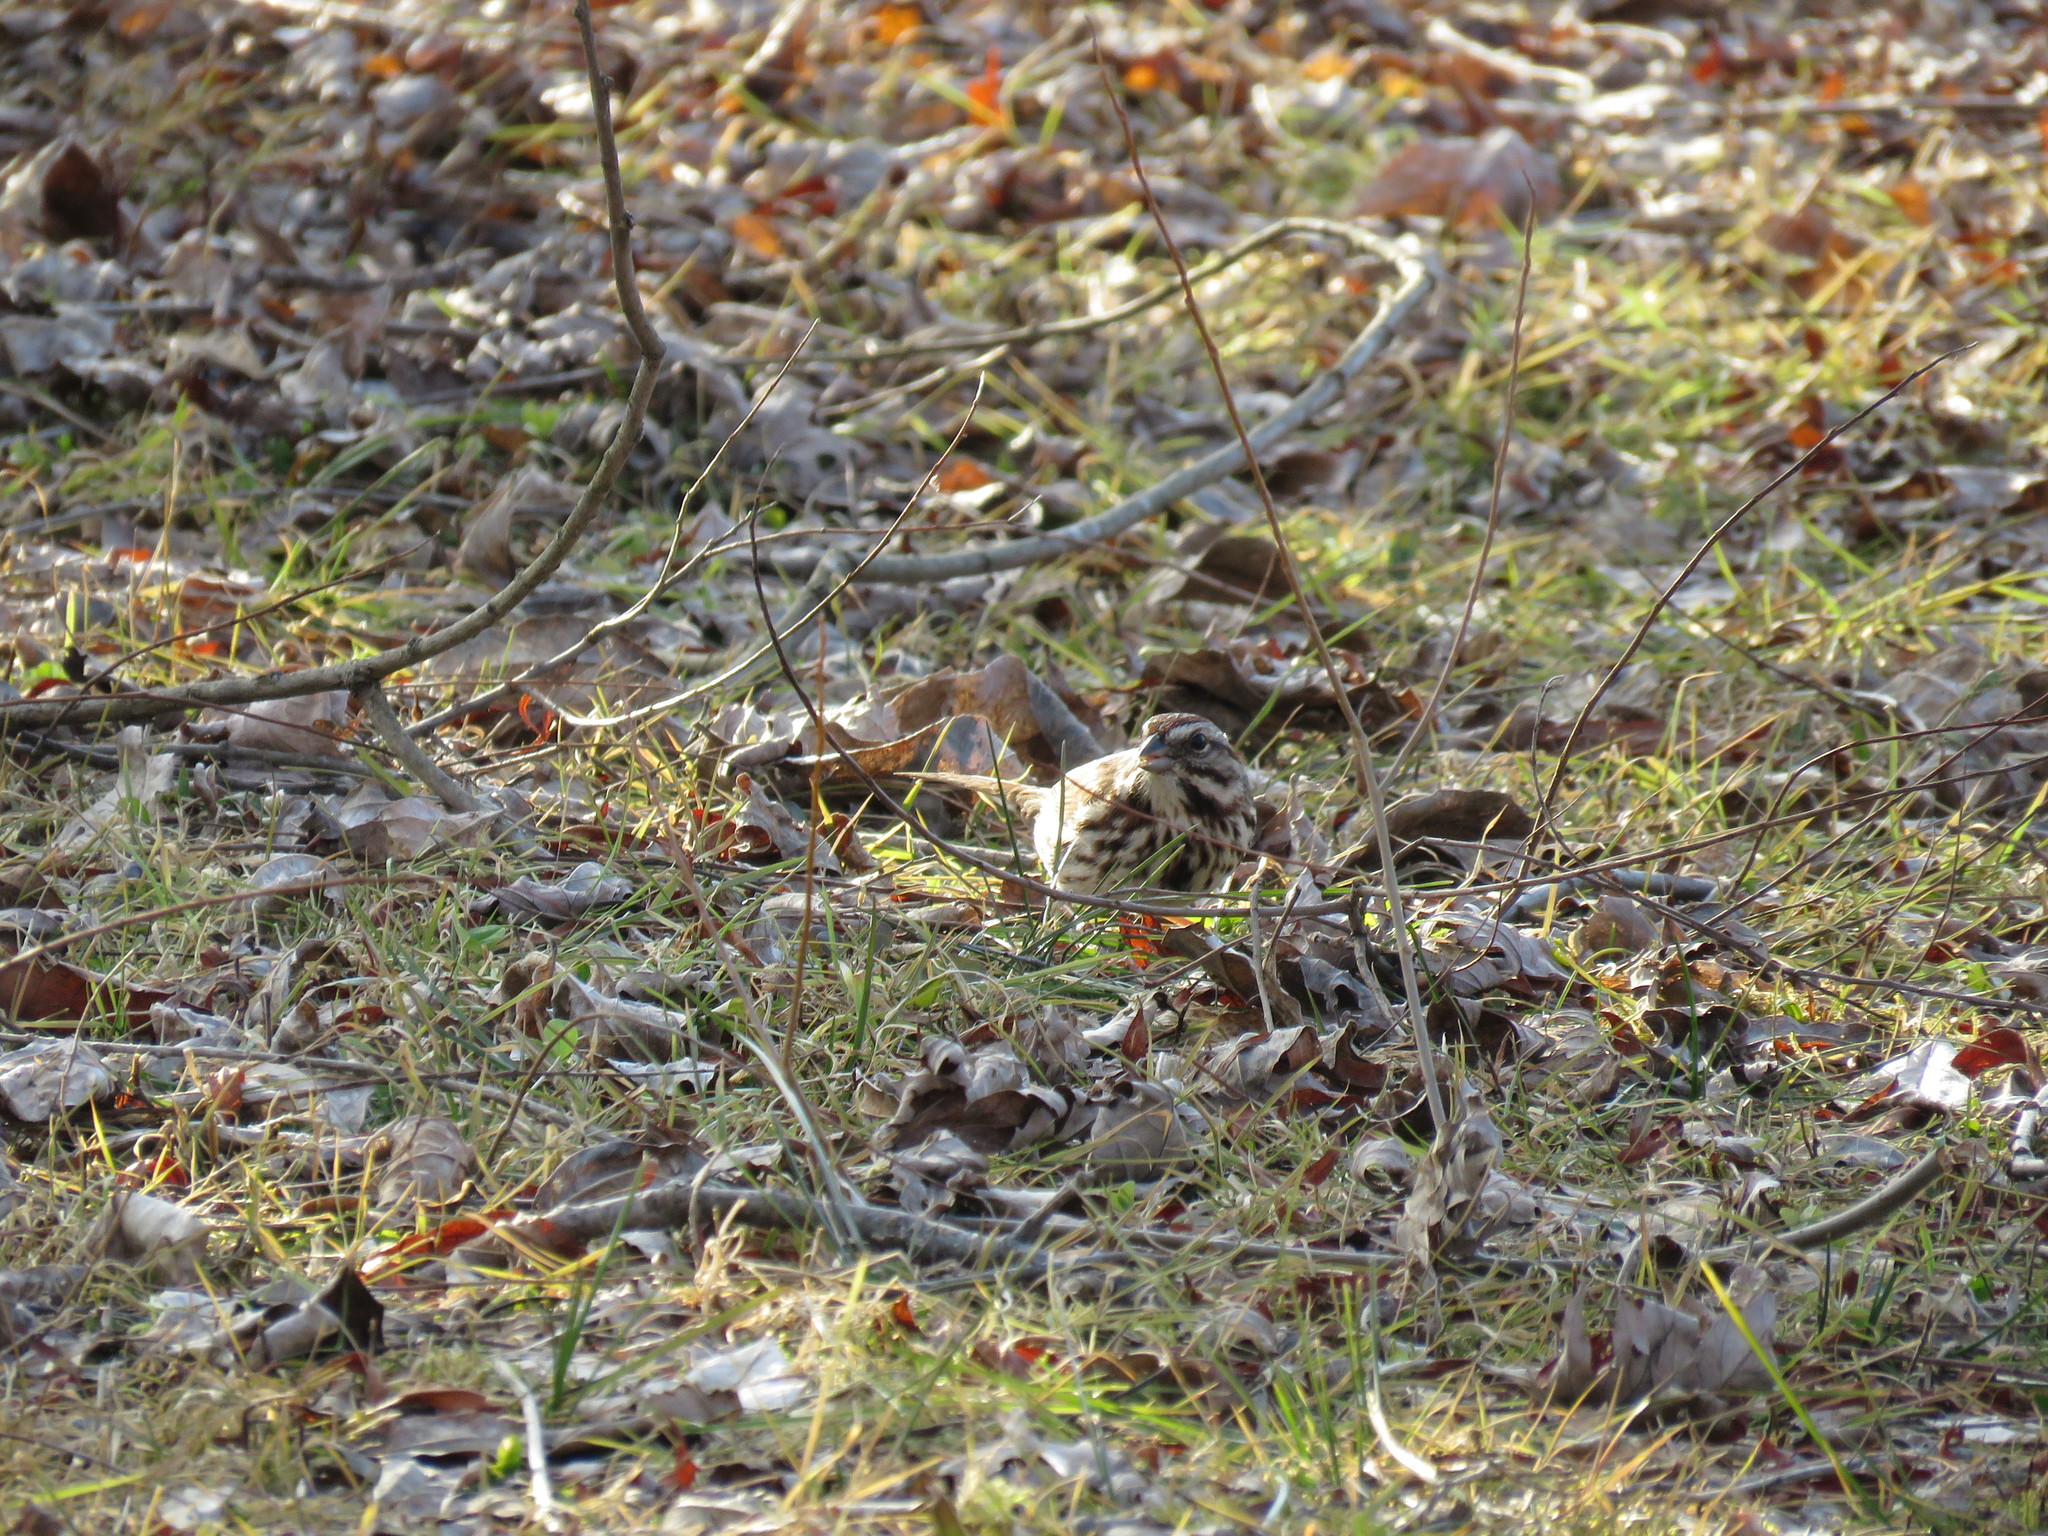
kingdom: Animalia
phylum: Chordata
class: Aves
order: Passeriformes
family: Passerellidae
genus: Melospiza
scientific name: Melospiza melodia
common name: Song sparrow
